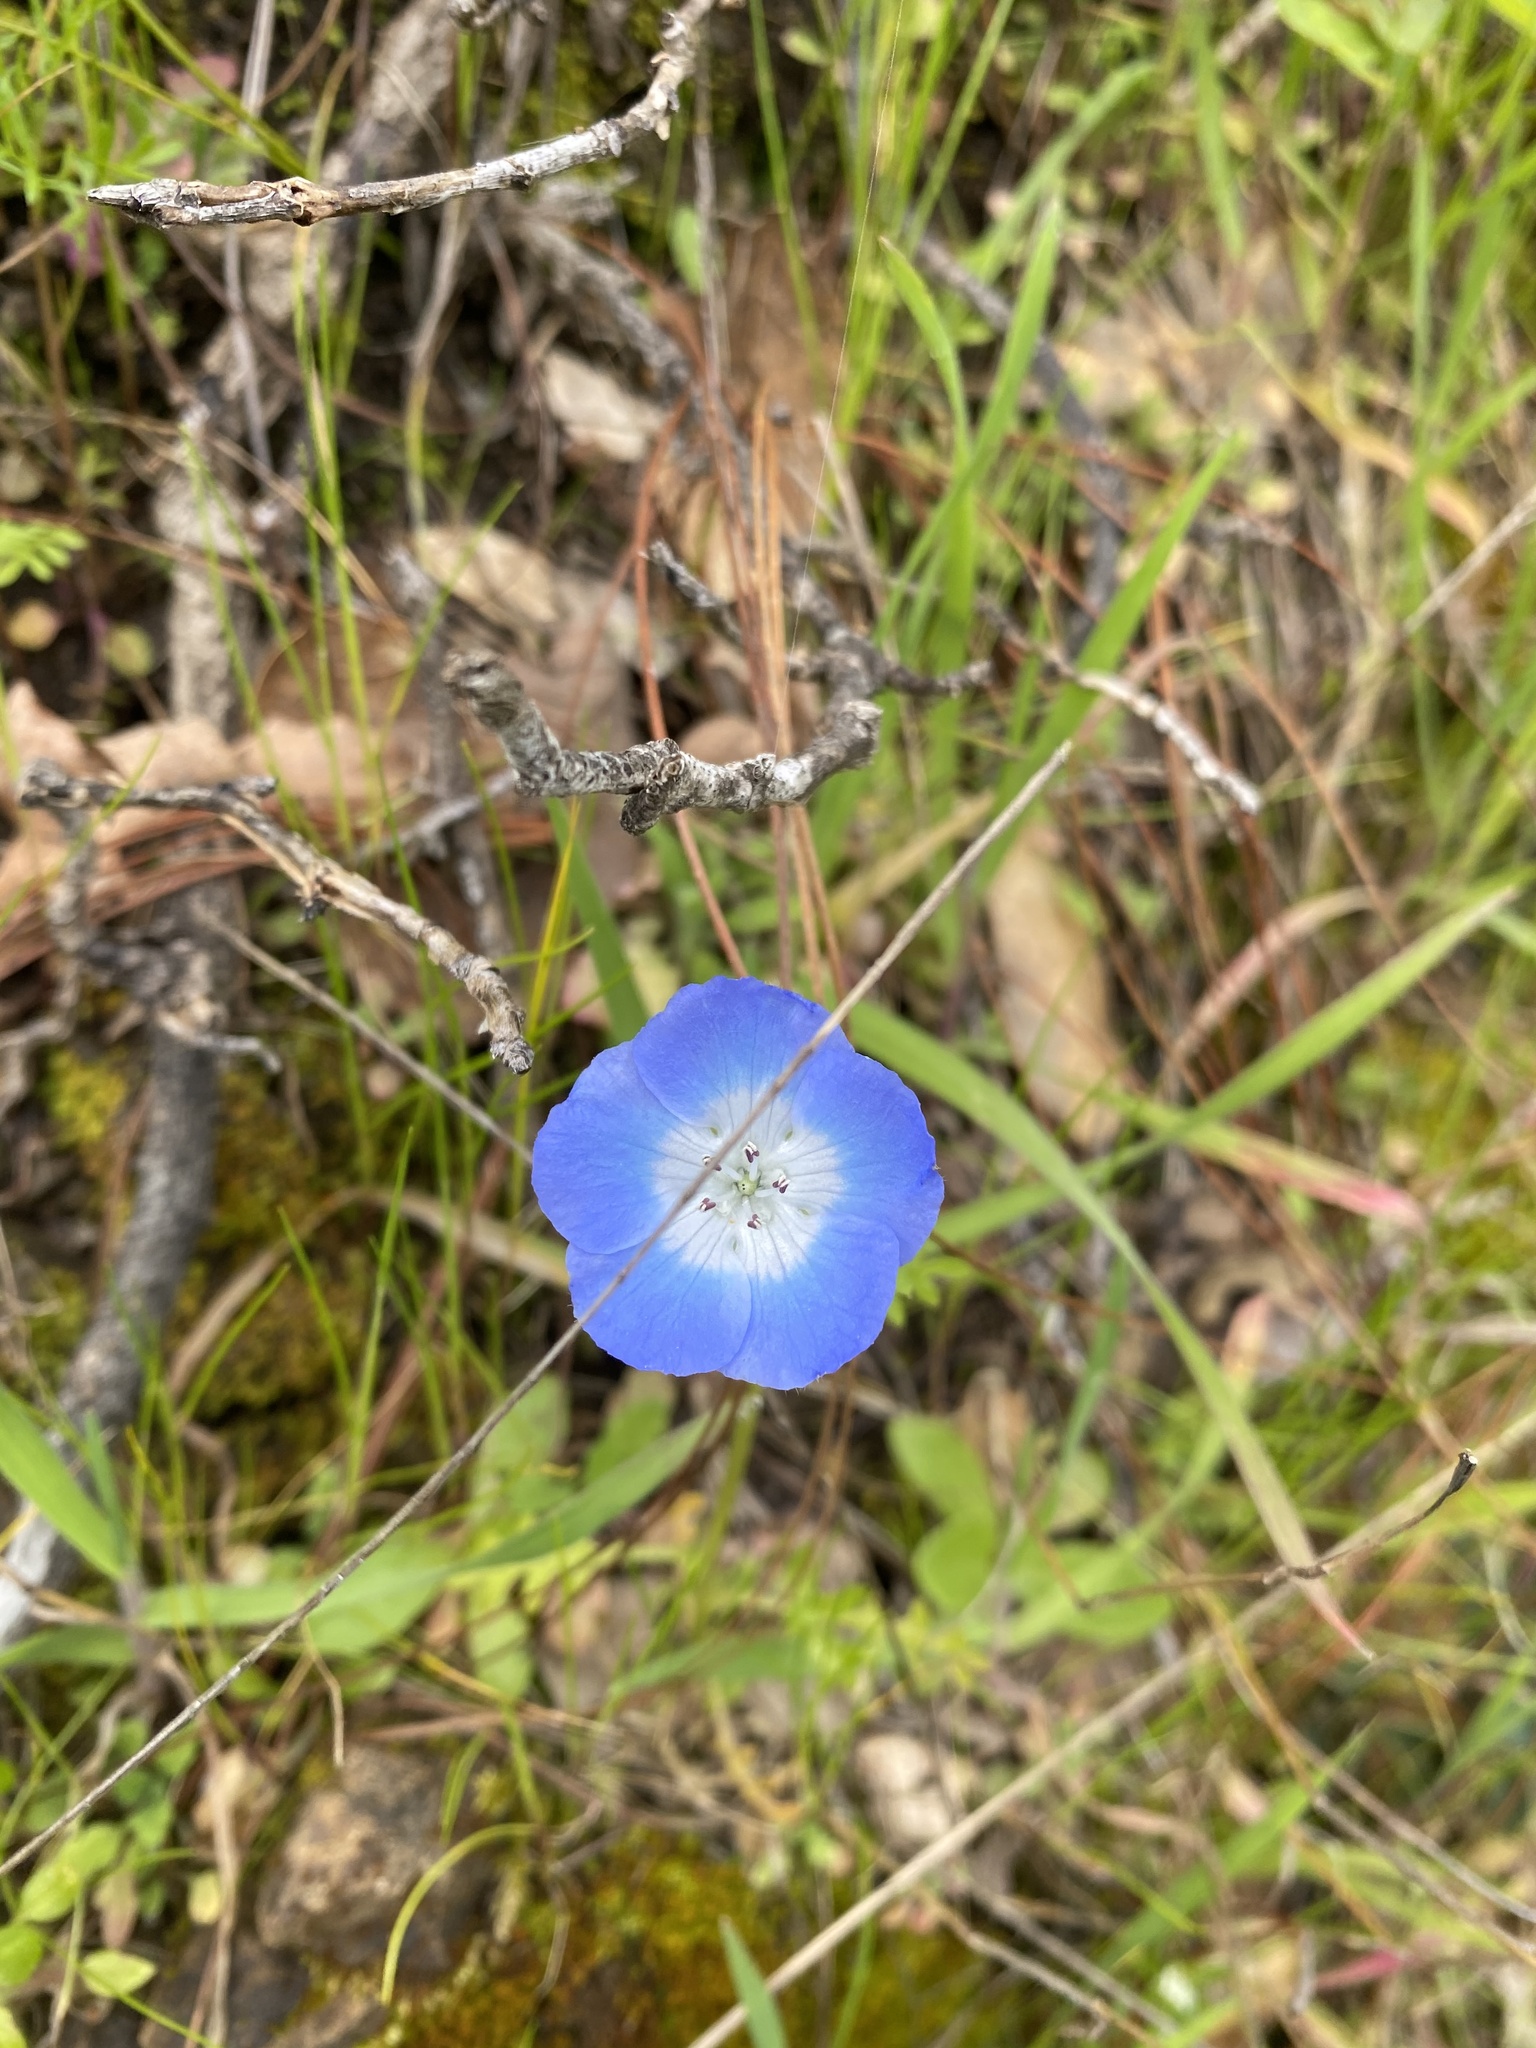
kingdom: Plantae
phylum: Tracheophyta
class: Magnoliopsida
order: Boraginales
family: Hydrophyllaceae
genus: Nemophila
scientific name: Nemophila menziesii
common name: Baby's-blue-eyes
